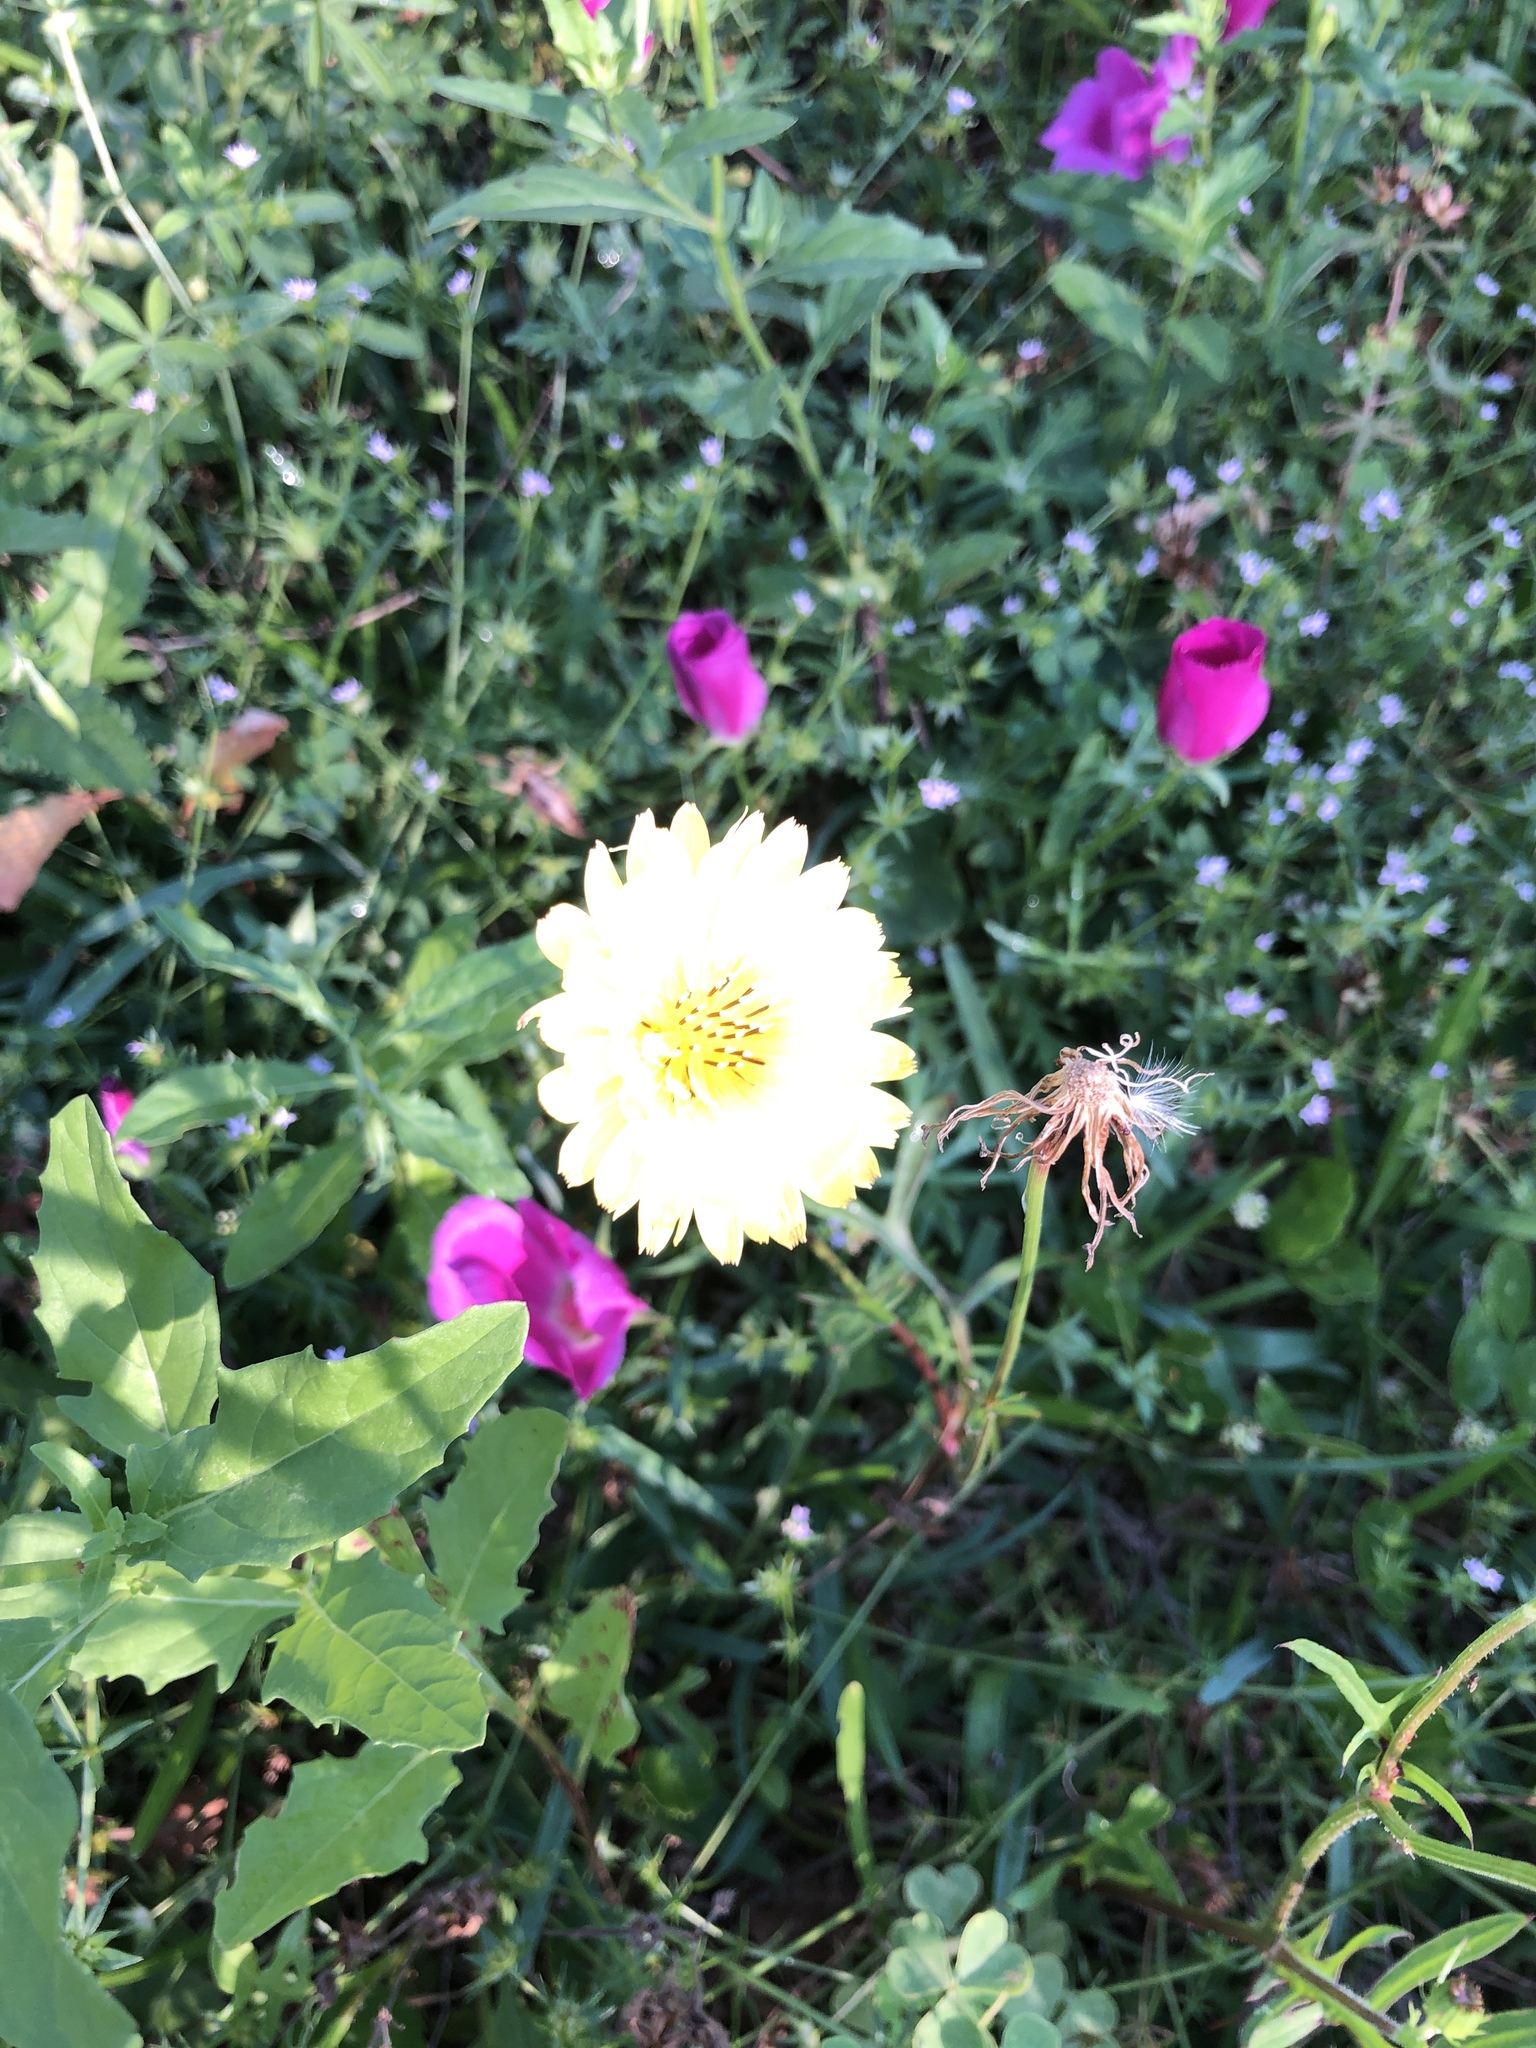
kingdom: Plantae
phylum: Tracheophyta
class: Magnoliopsida
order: Asterales
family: Asteraceae
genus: Pyrrhopappus
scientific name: Pyrrhopappus pauciflorus
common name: Texas false dandelion
